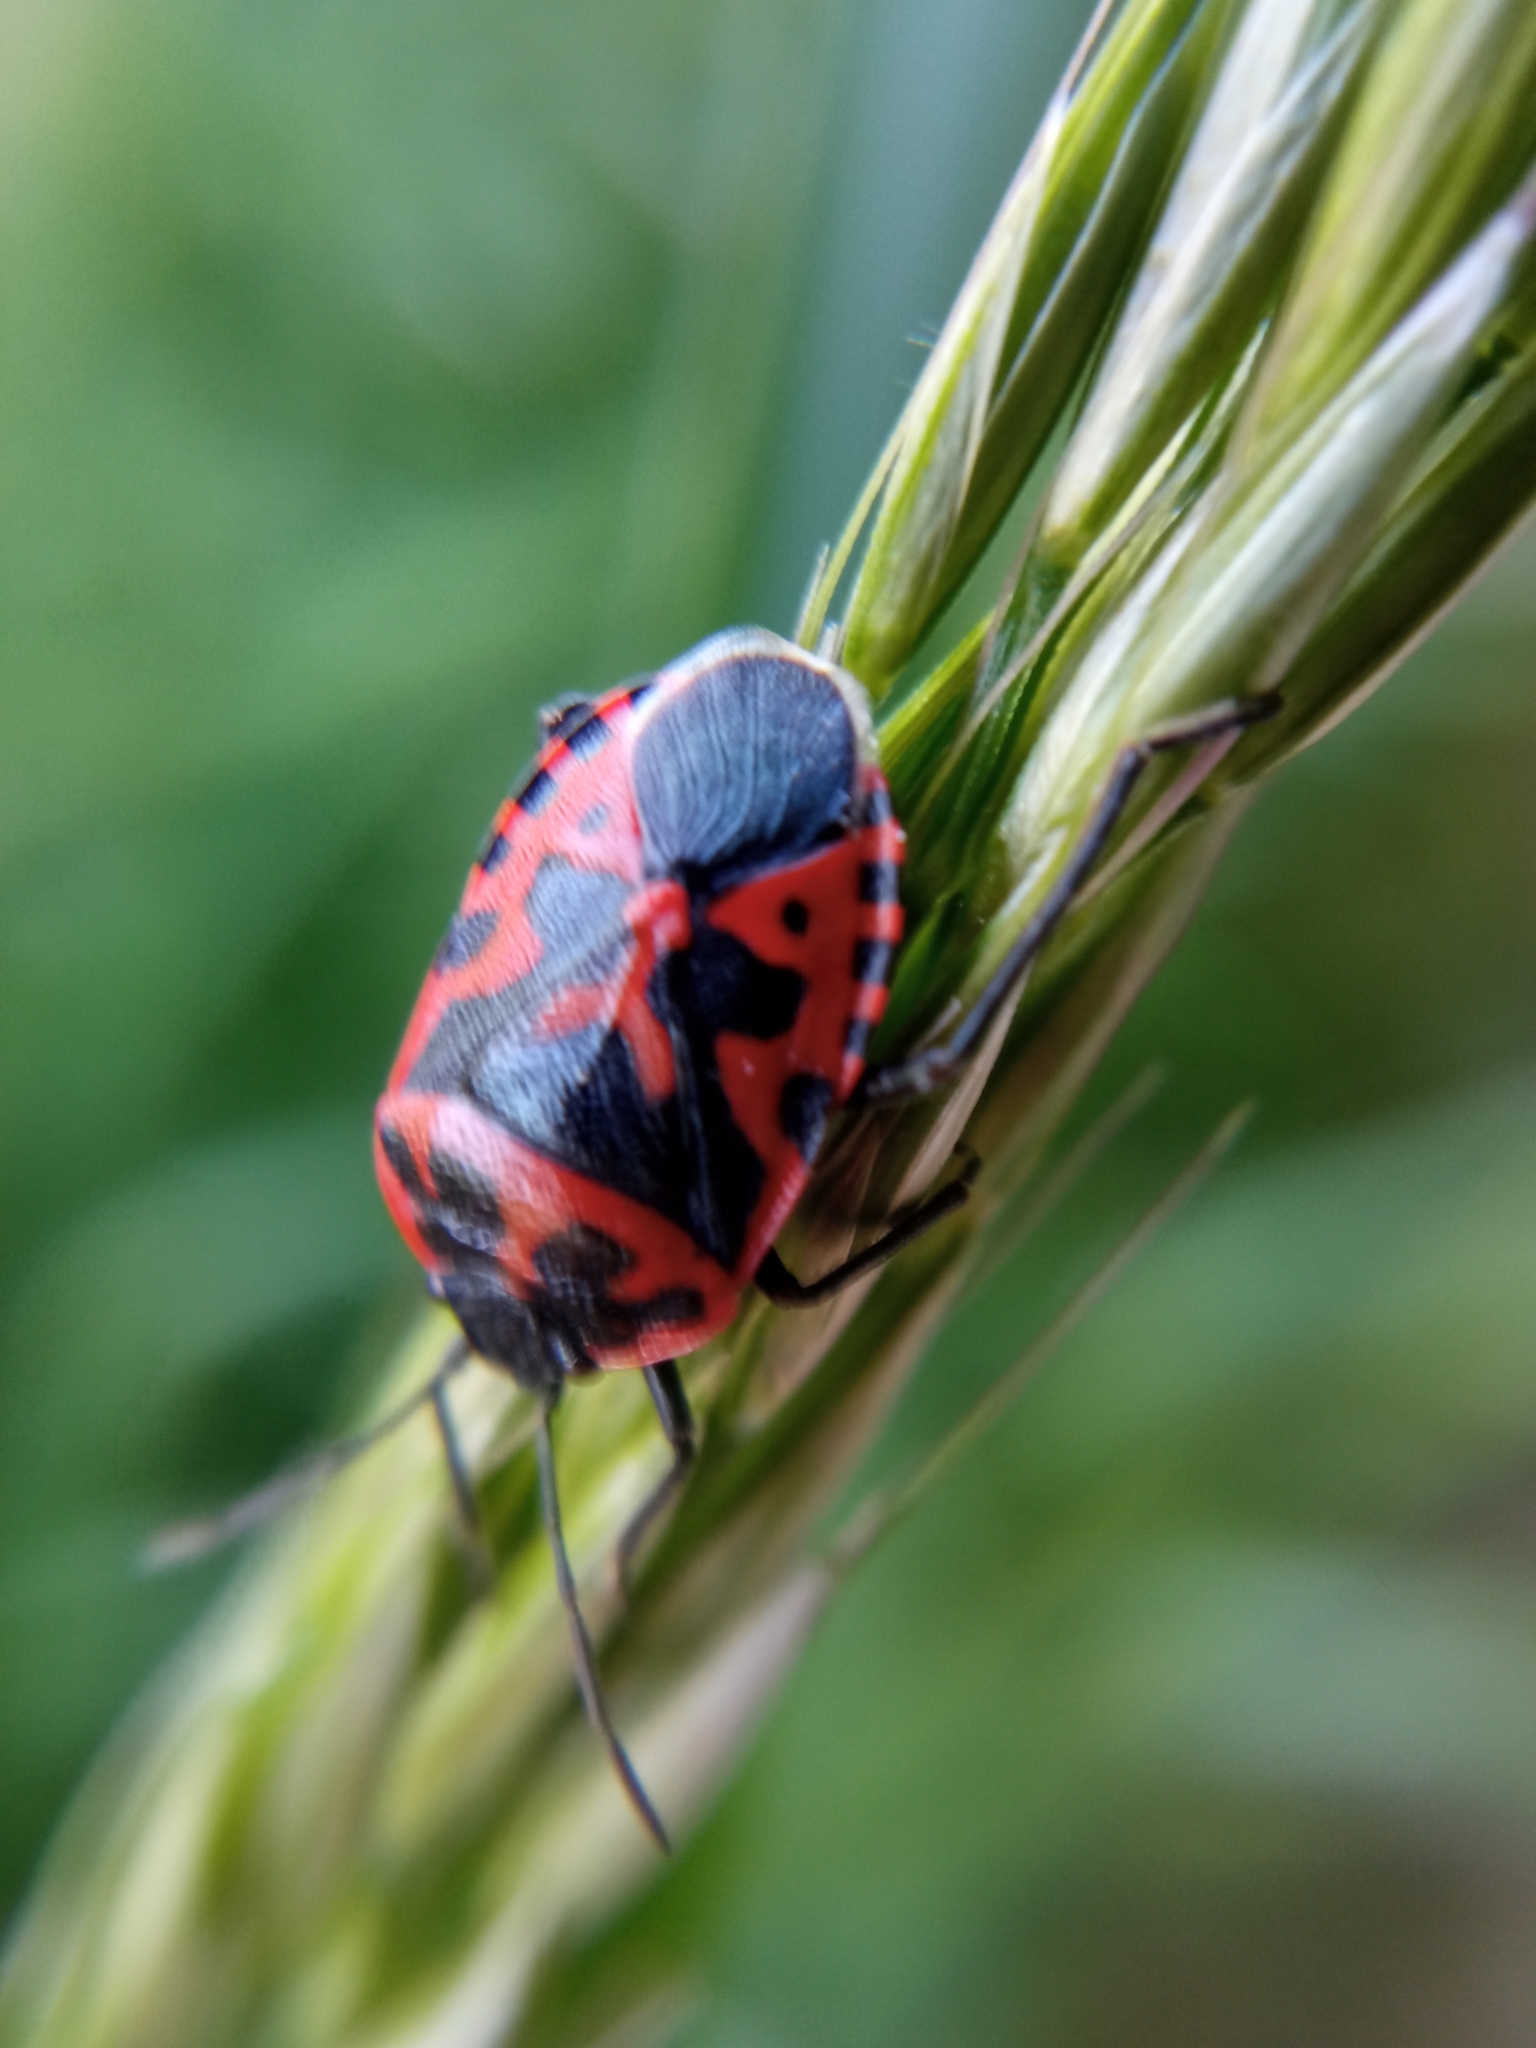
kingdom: Animalia
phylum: Arthropoda
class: Insecta
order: Hemiptera
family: Pentatomidae
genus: Eurydema
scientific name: Eurydema ventralis
